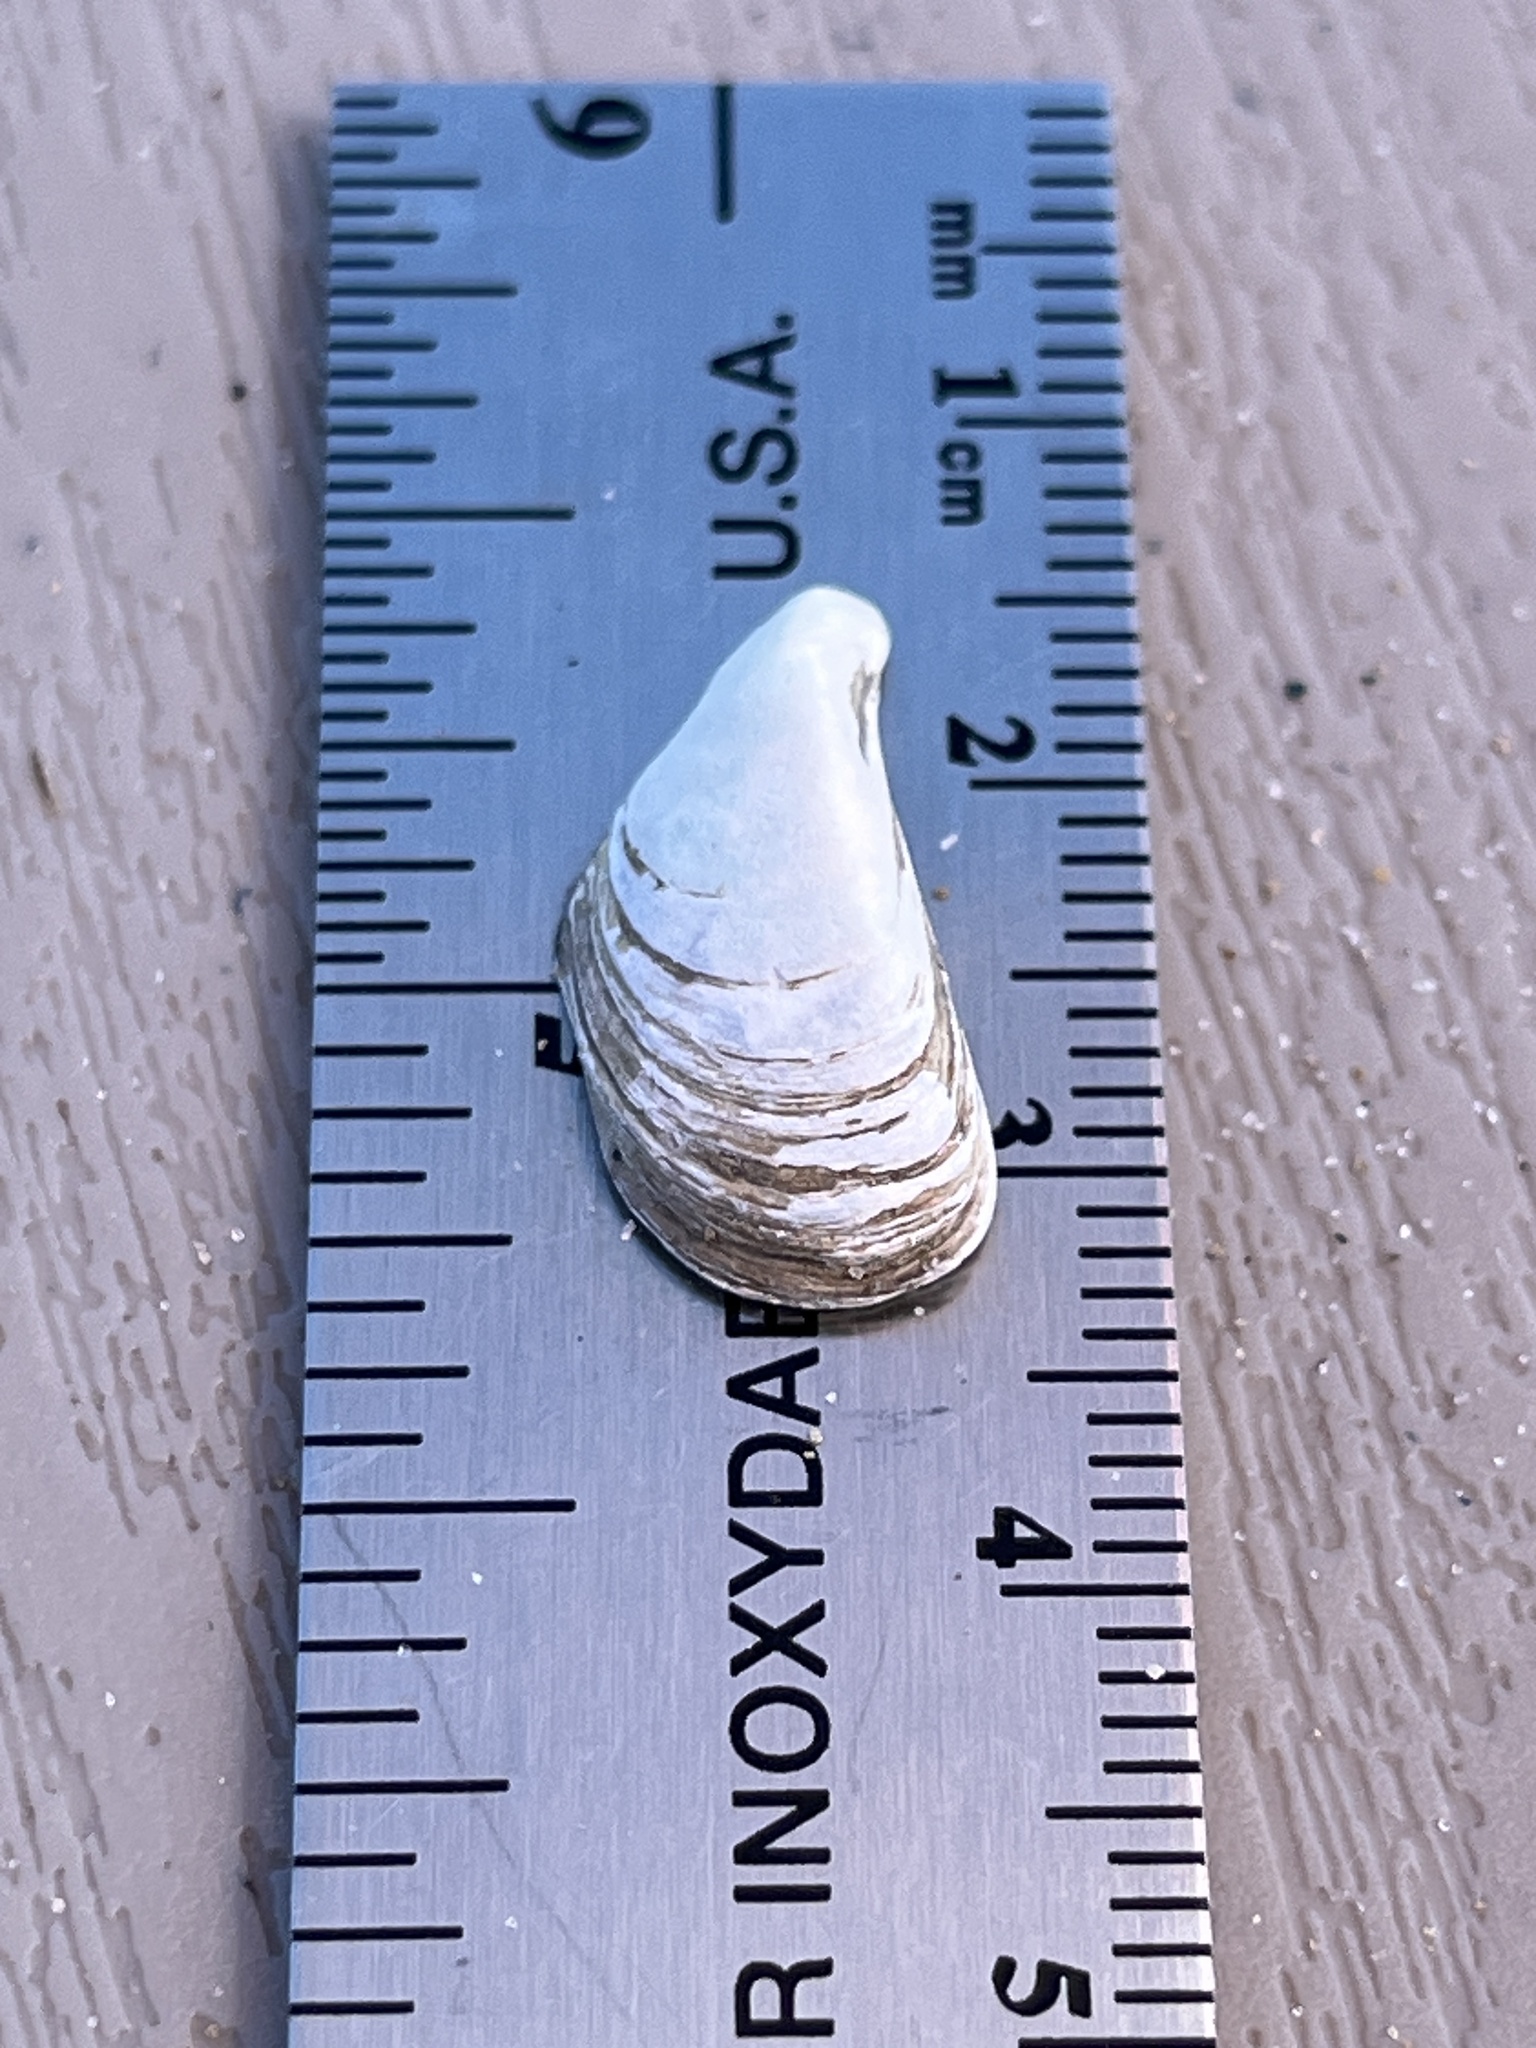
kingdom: Animalia
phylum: Mollusca
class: Bivalvia
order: Myida
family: Dreissenidae
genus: Dreissena
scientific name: Dreissena polymorpha
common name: Zebra mussel
